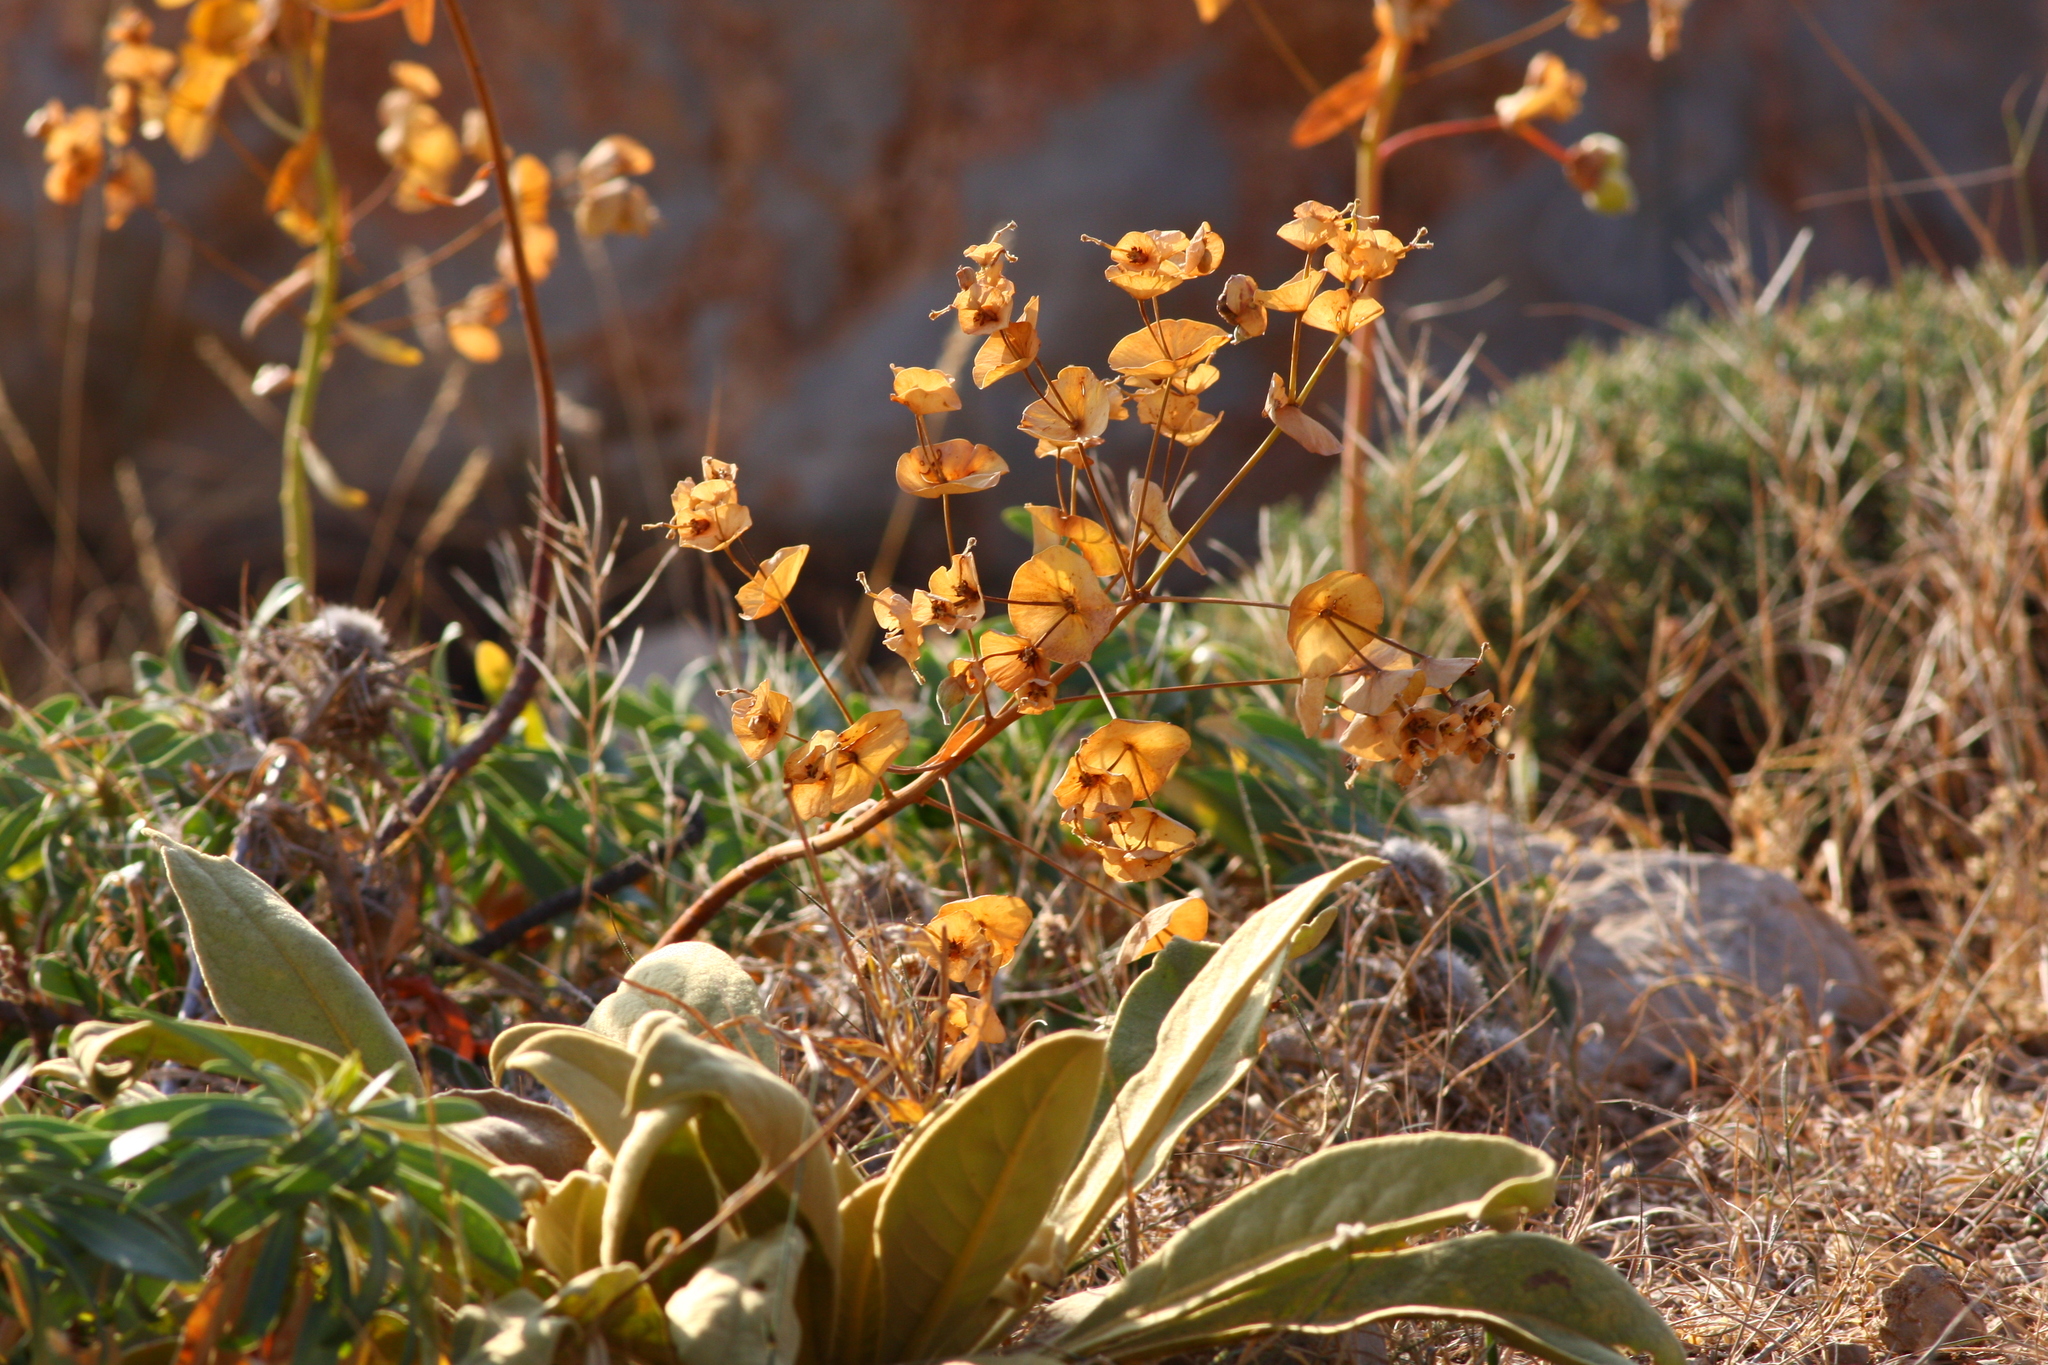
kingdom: Plantae
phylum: Tracheophyta
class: Magnoliopsida
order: Malpighiales
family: Euphorbiaceae
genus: Euphorbia
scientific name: Euphorbia kotschyana
